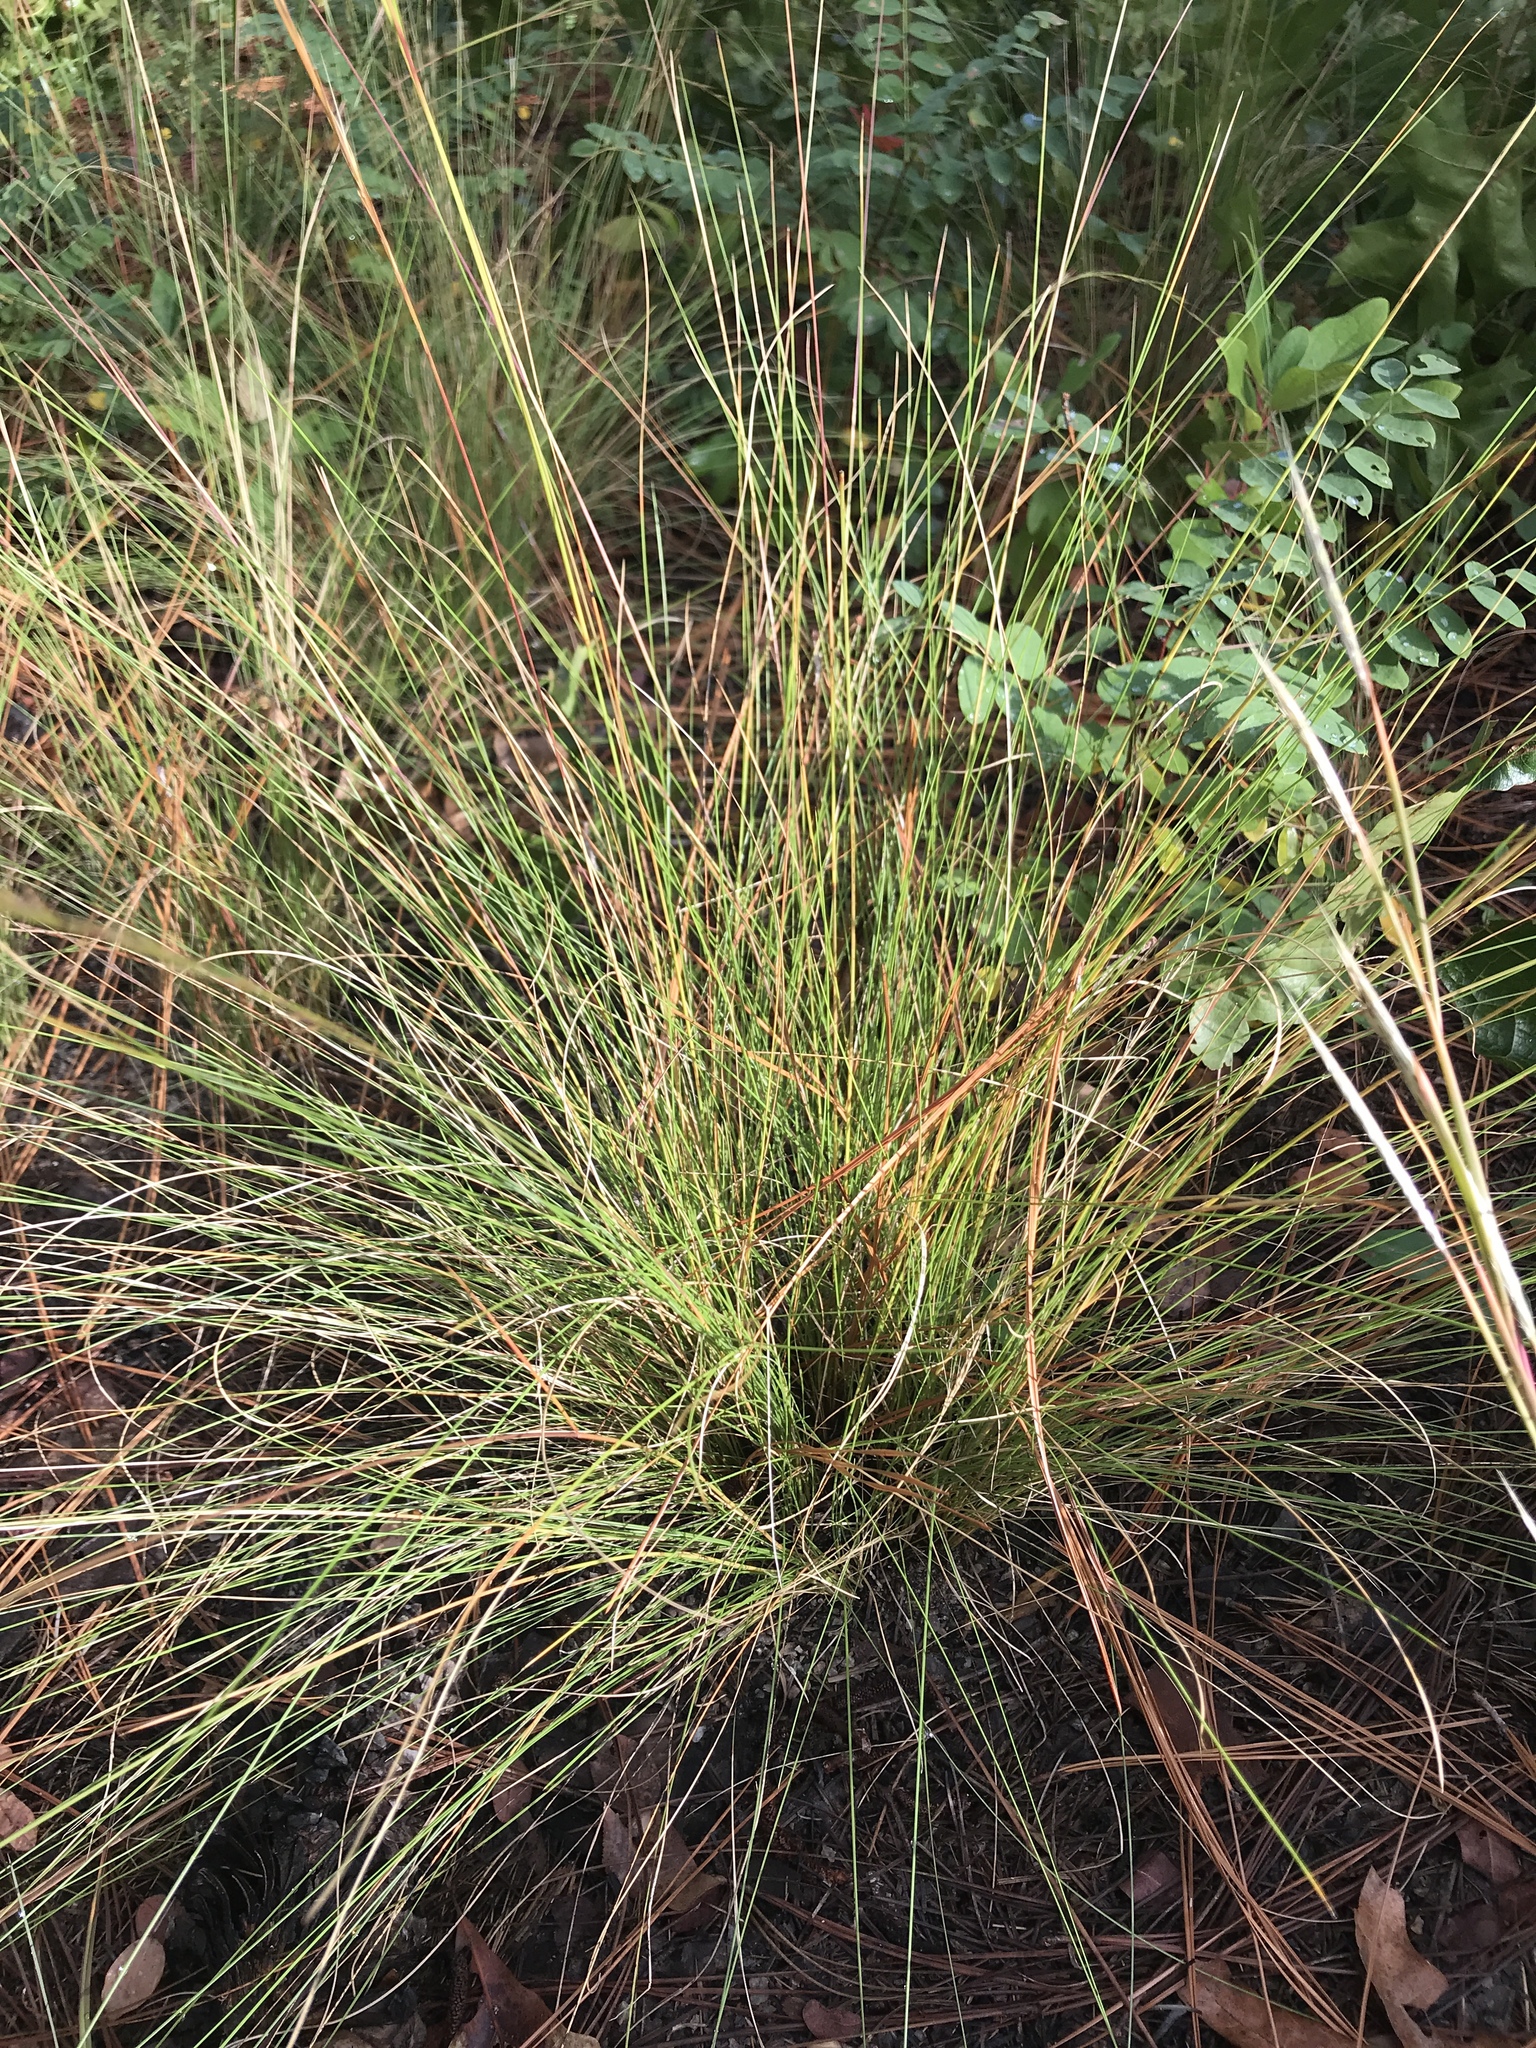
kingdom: Plantae
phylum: Tracheophyta
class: Liliopsida
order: Poales
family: Poaceae
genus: Aristida
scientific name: Aristida stricta
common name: Pineland three-awn
